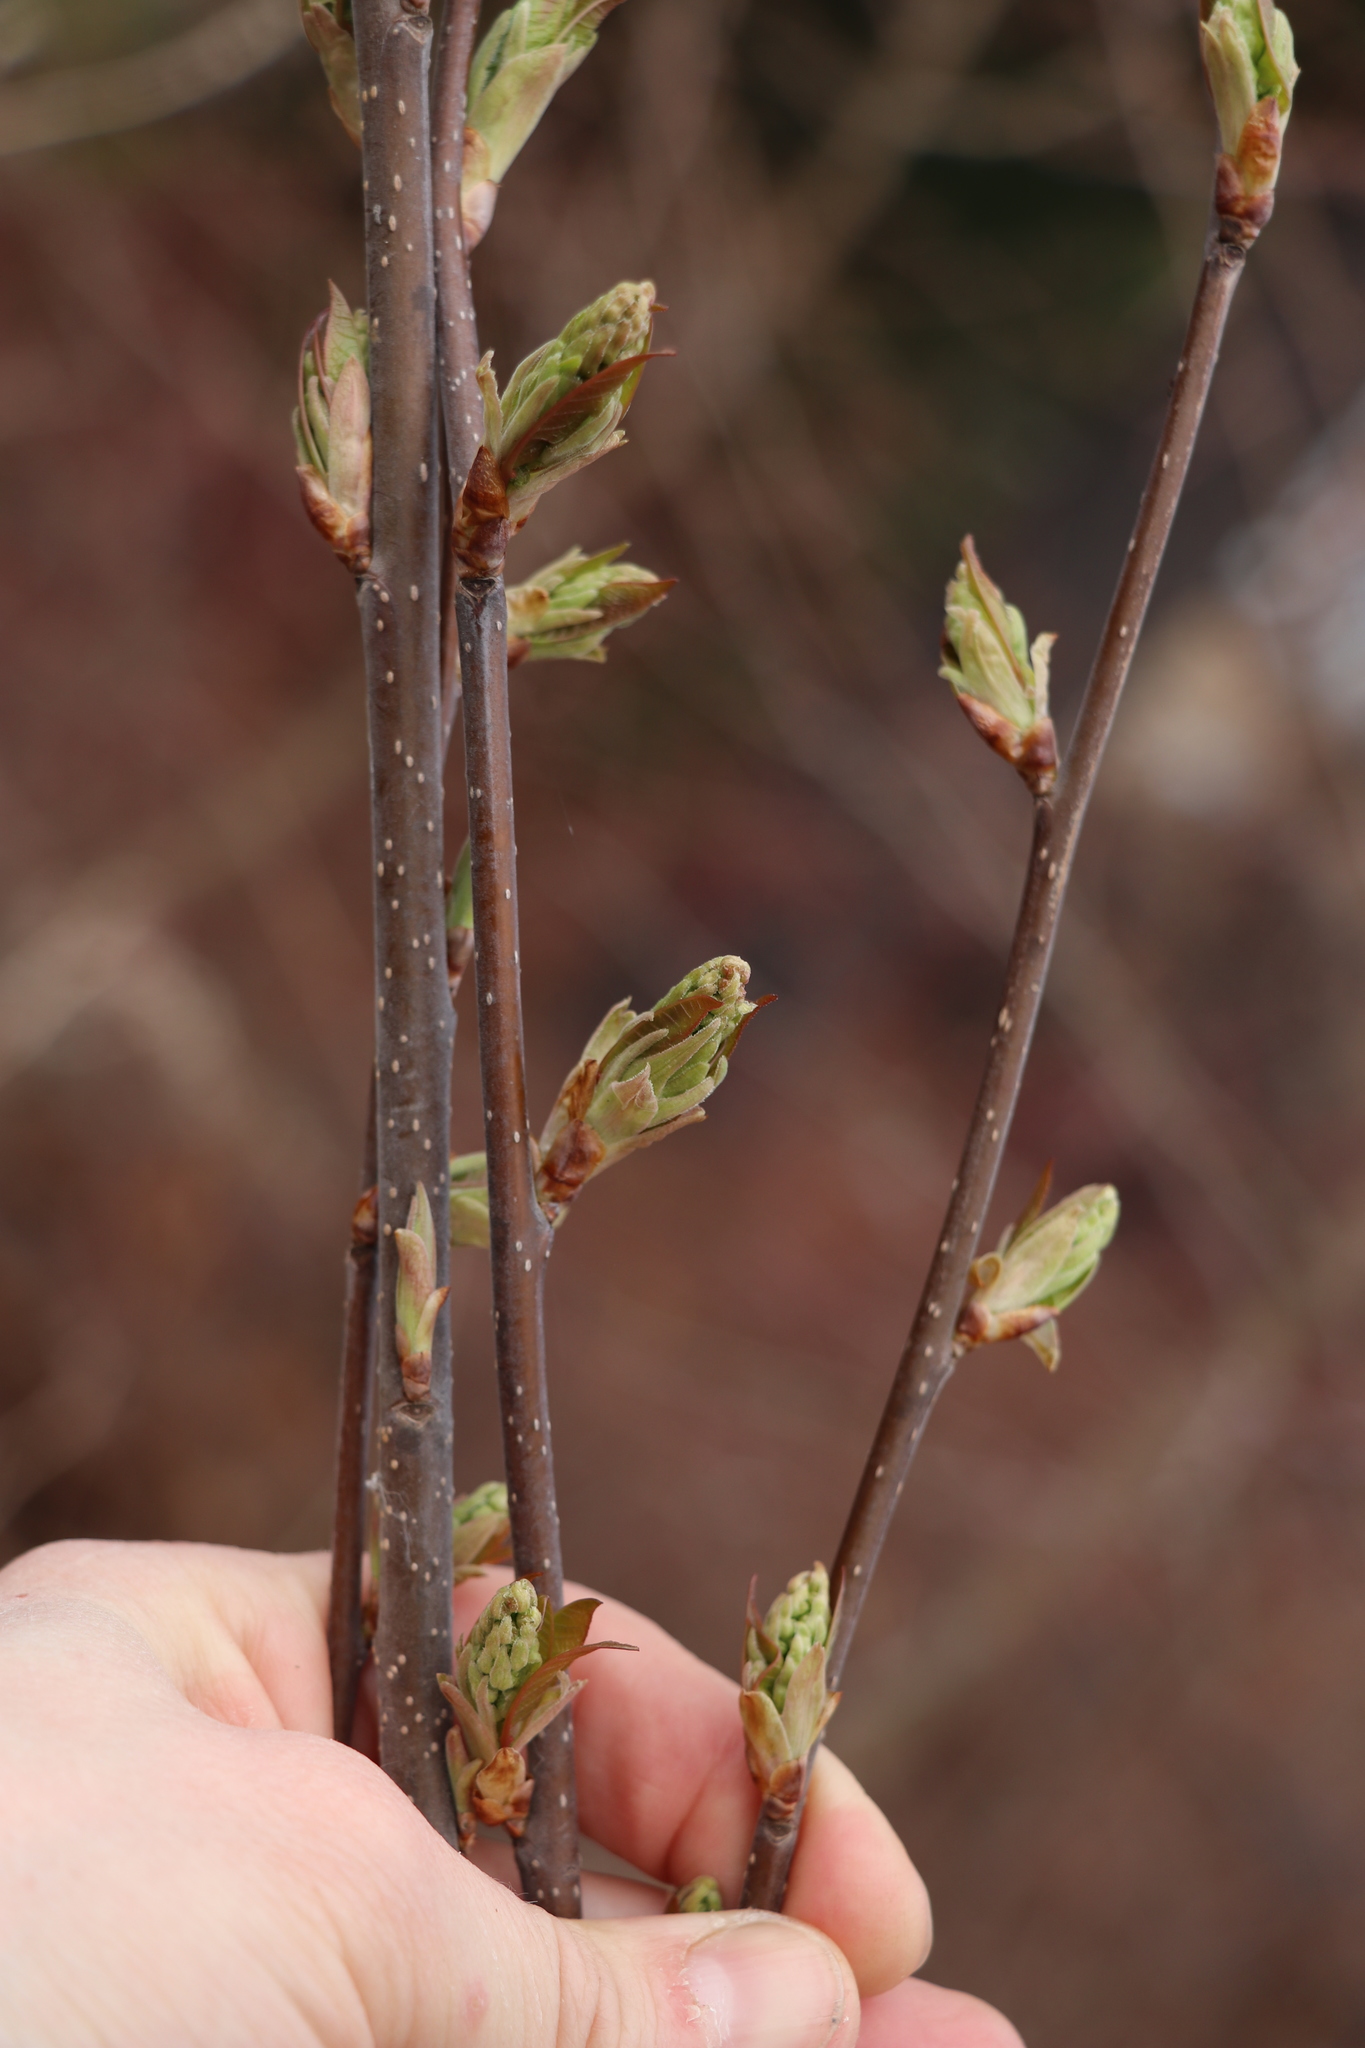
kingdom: Plantae
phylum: Tracheophyta
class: Magnoliopsida
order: Rosales
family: Rosaceae
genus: Prunus
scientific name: Prunus padus
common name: Bird cherry
